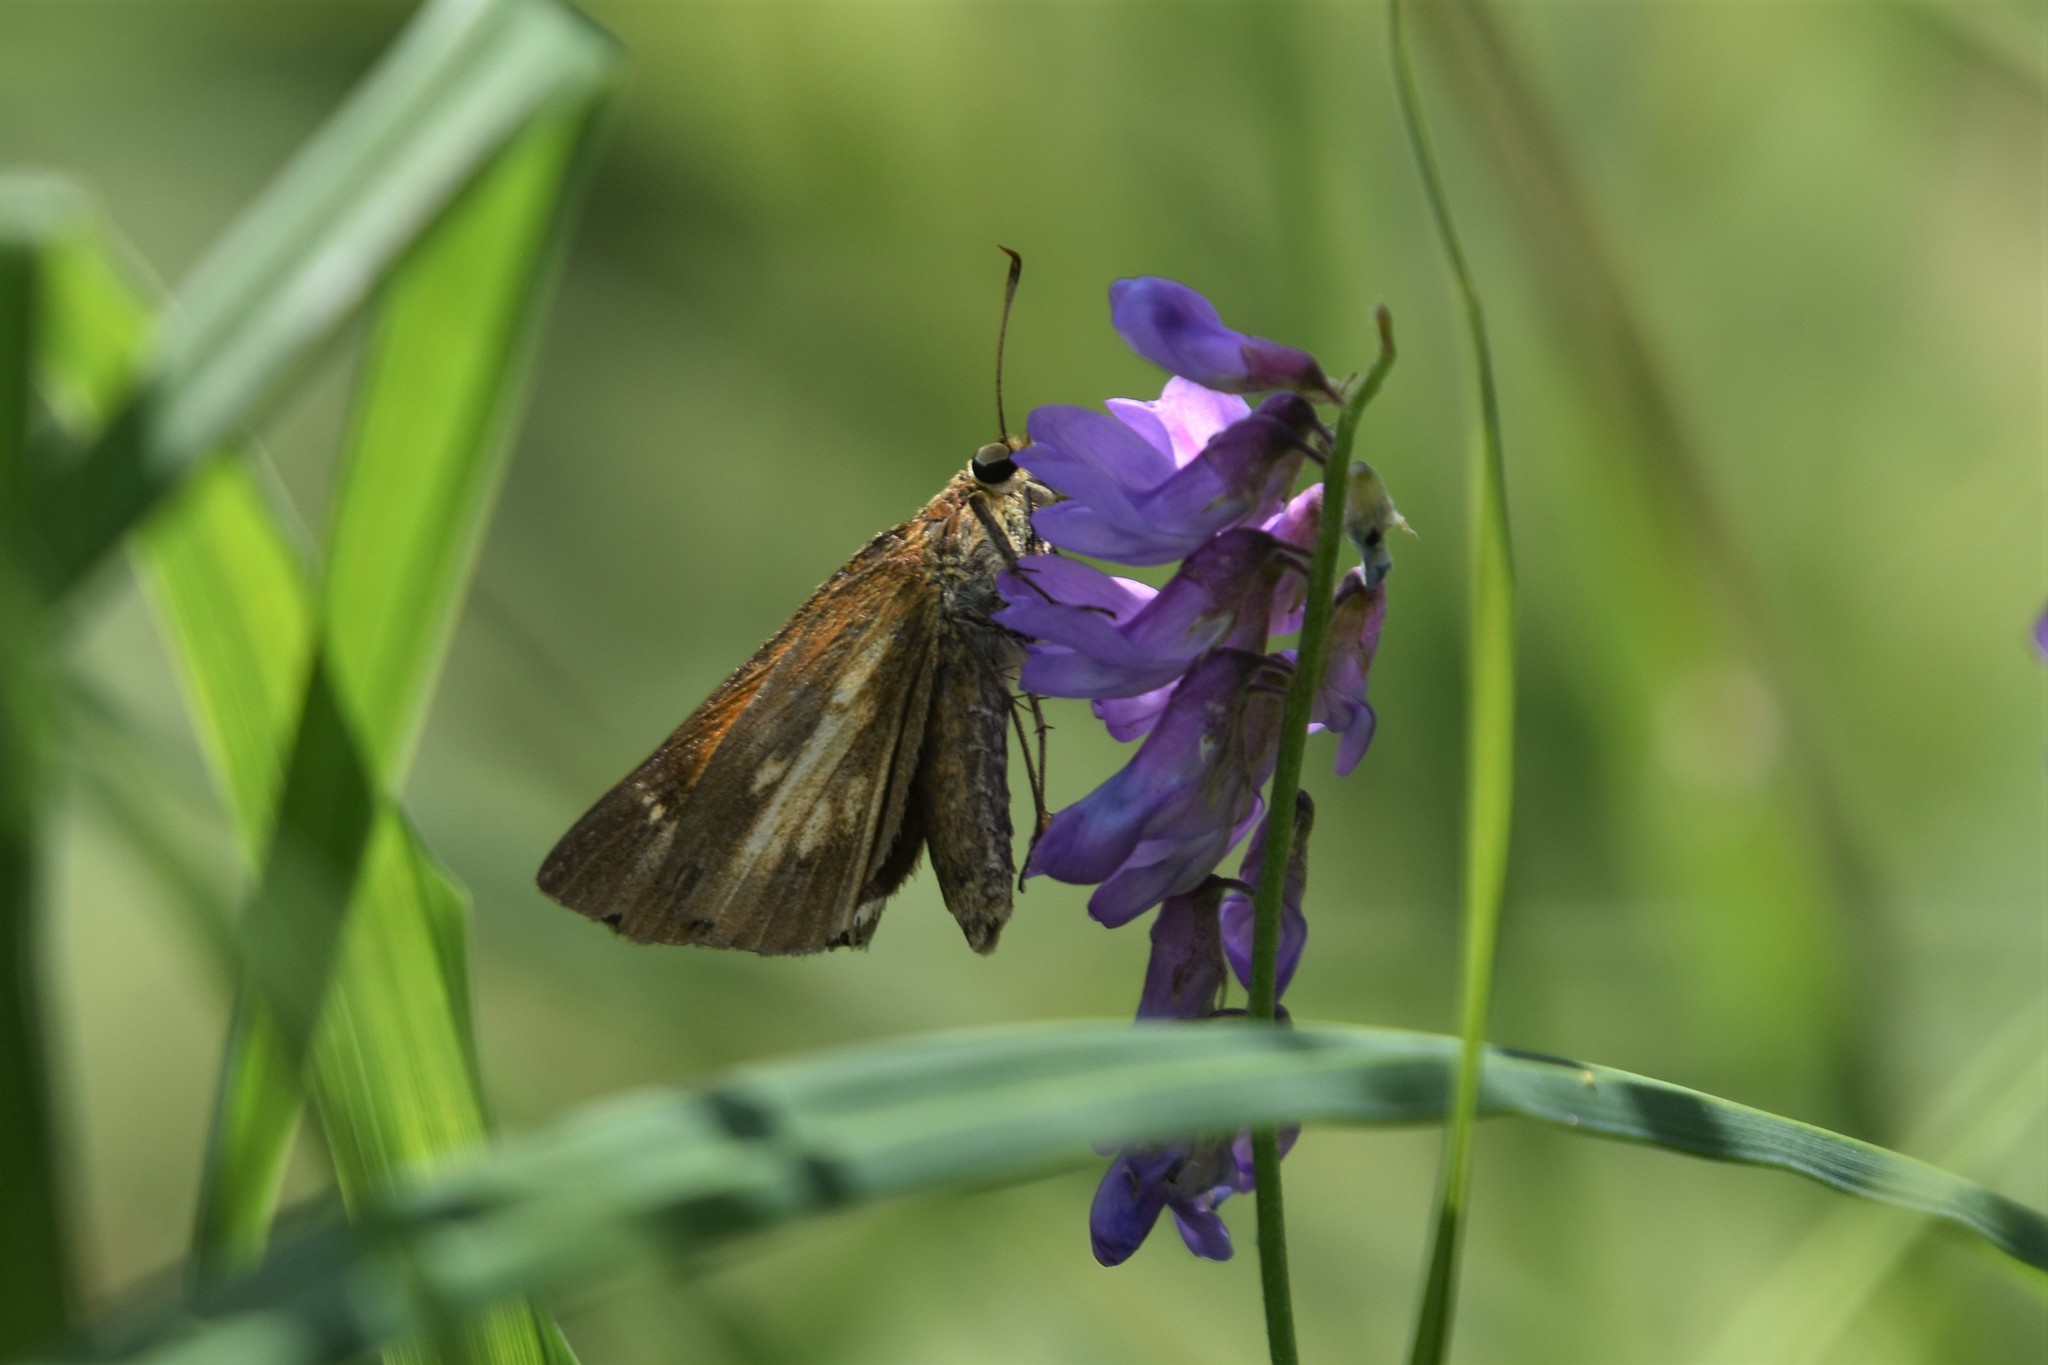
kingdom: Animalia
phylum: Arthropoda
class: Insecta
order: Lepidoptera
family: Hesperiidae
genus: Poanes
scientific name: Poanes viator
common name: Broad-winged skipper
